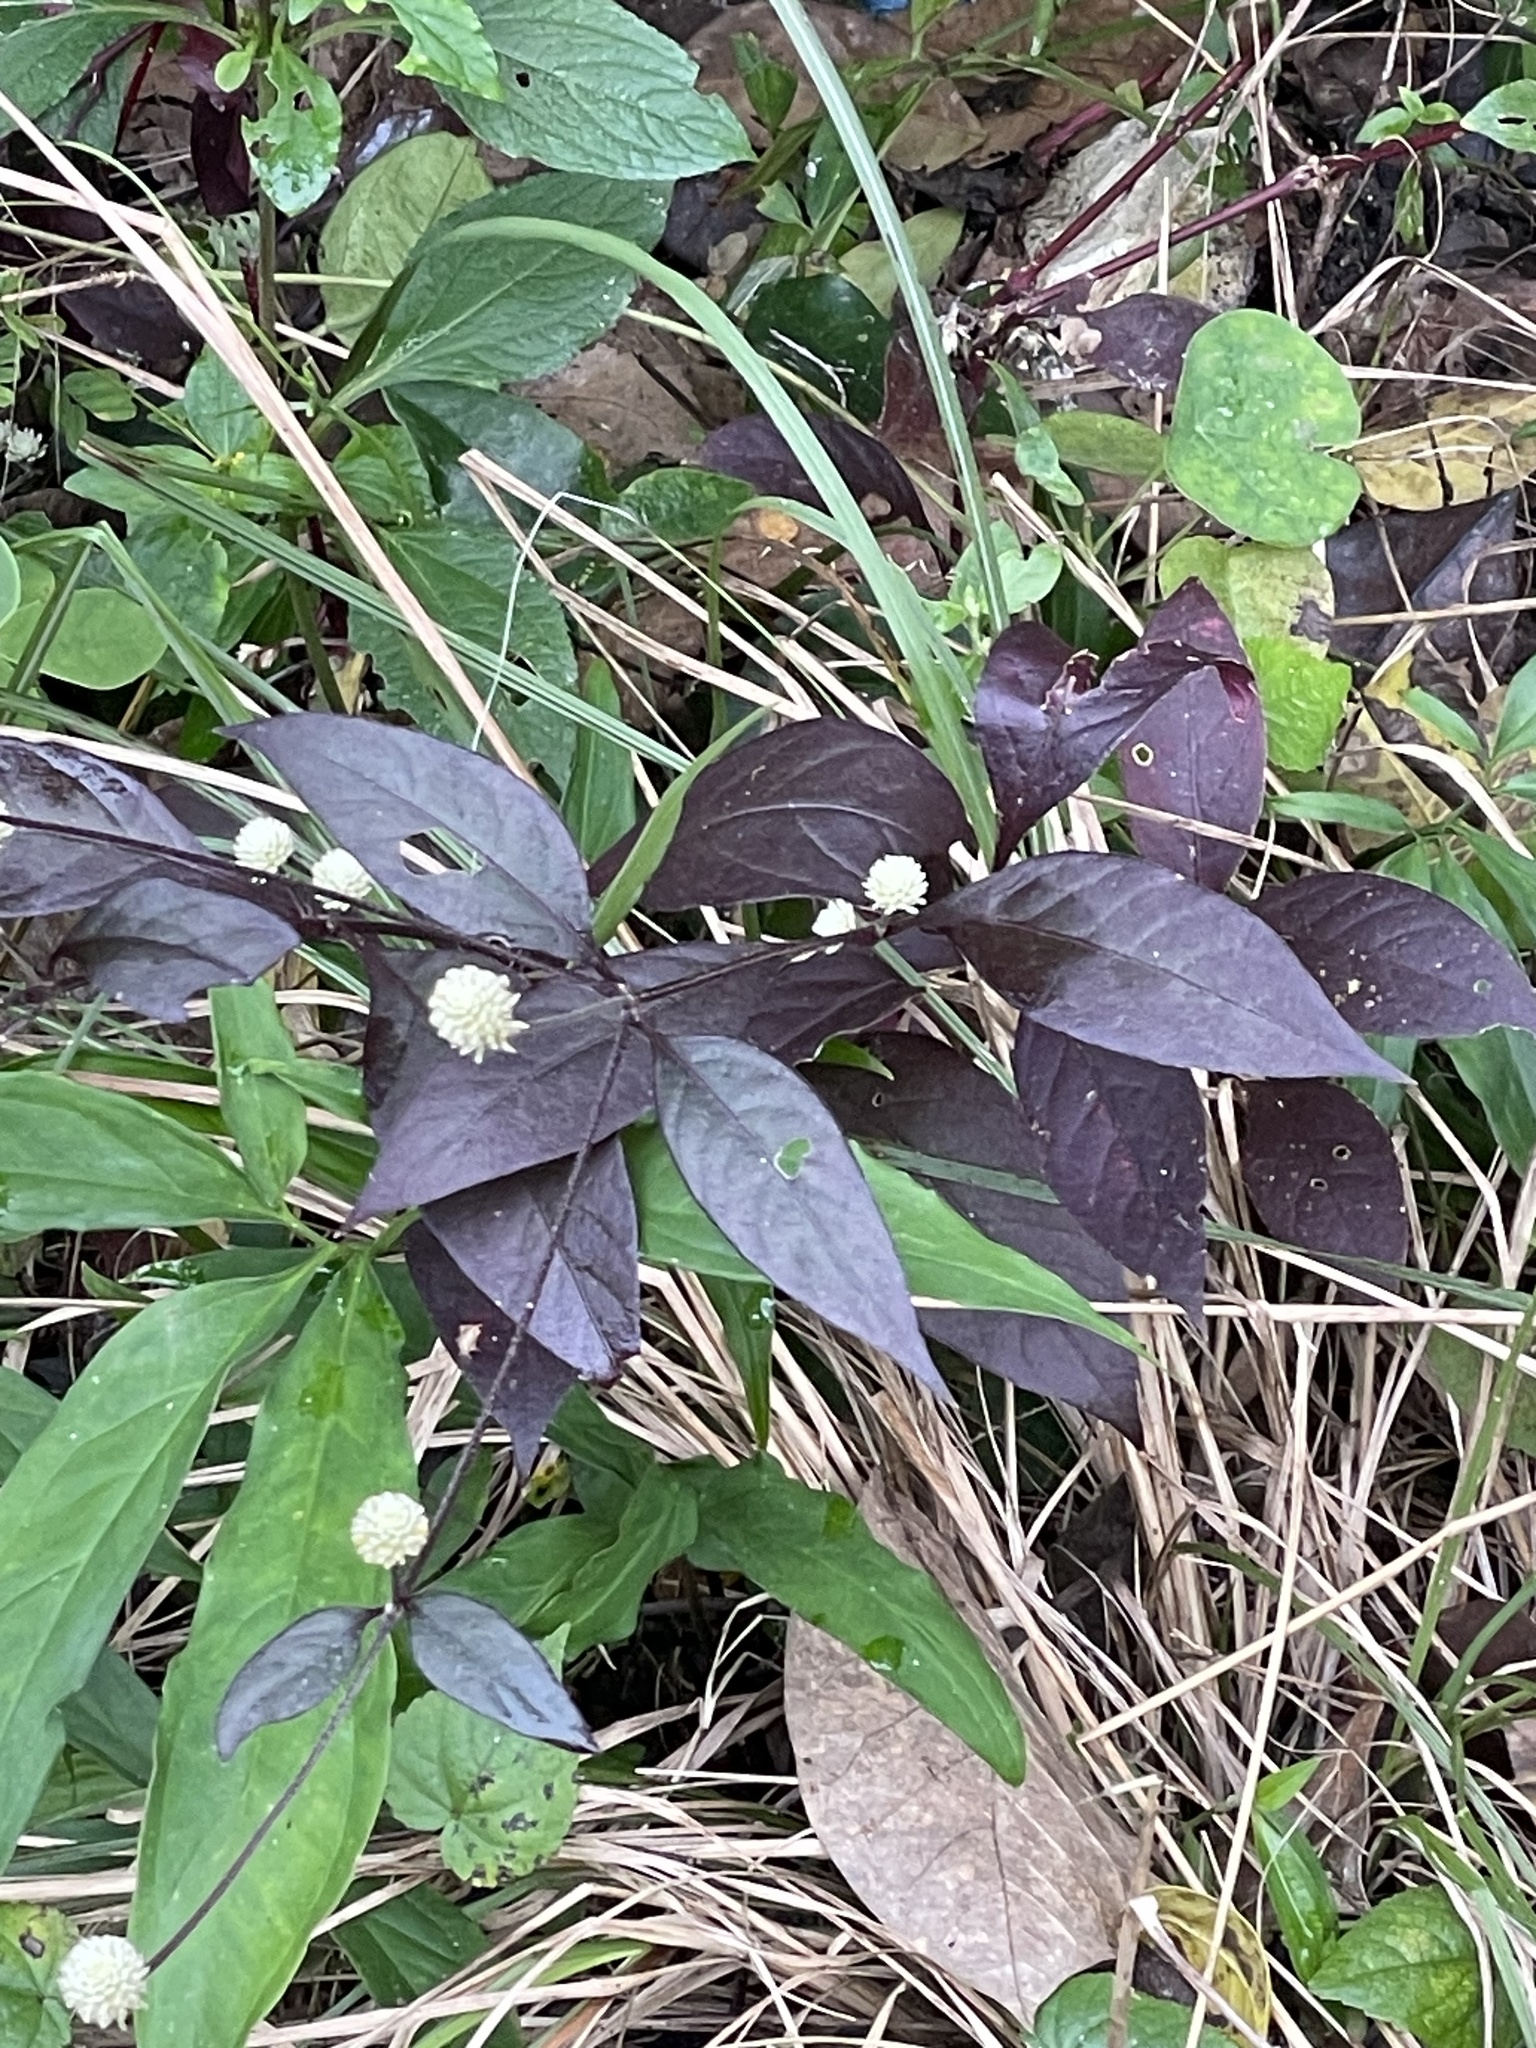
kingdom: Plantae
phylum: Tracheophyta
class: Magnoliopsida
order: Caryophyllales
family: Amaranthaceae
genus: Alternanthera
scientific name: Alternanthera brasiliana
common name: Brazilian joyweed
